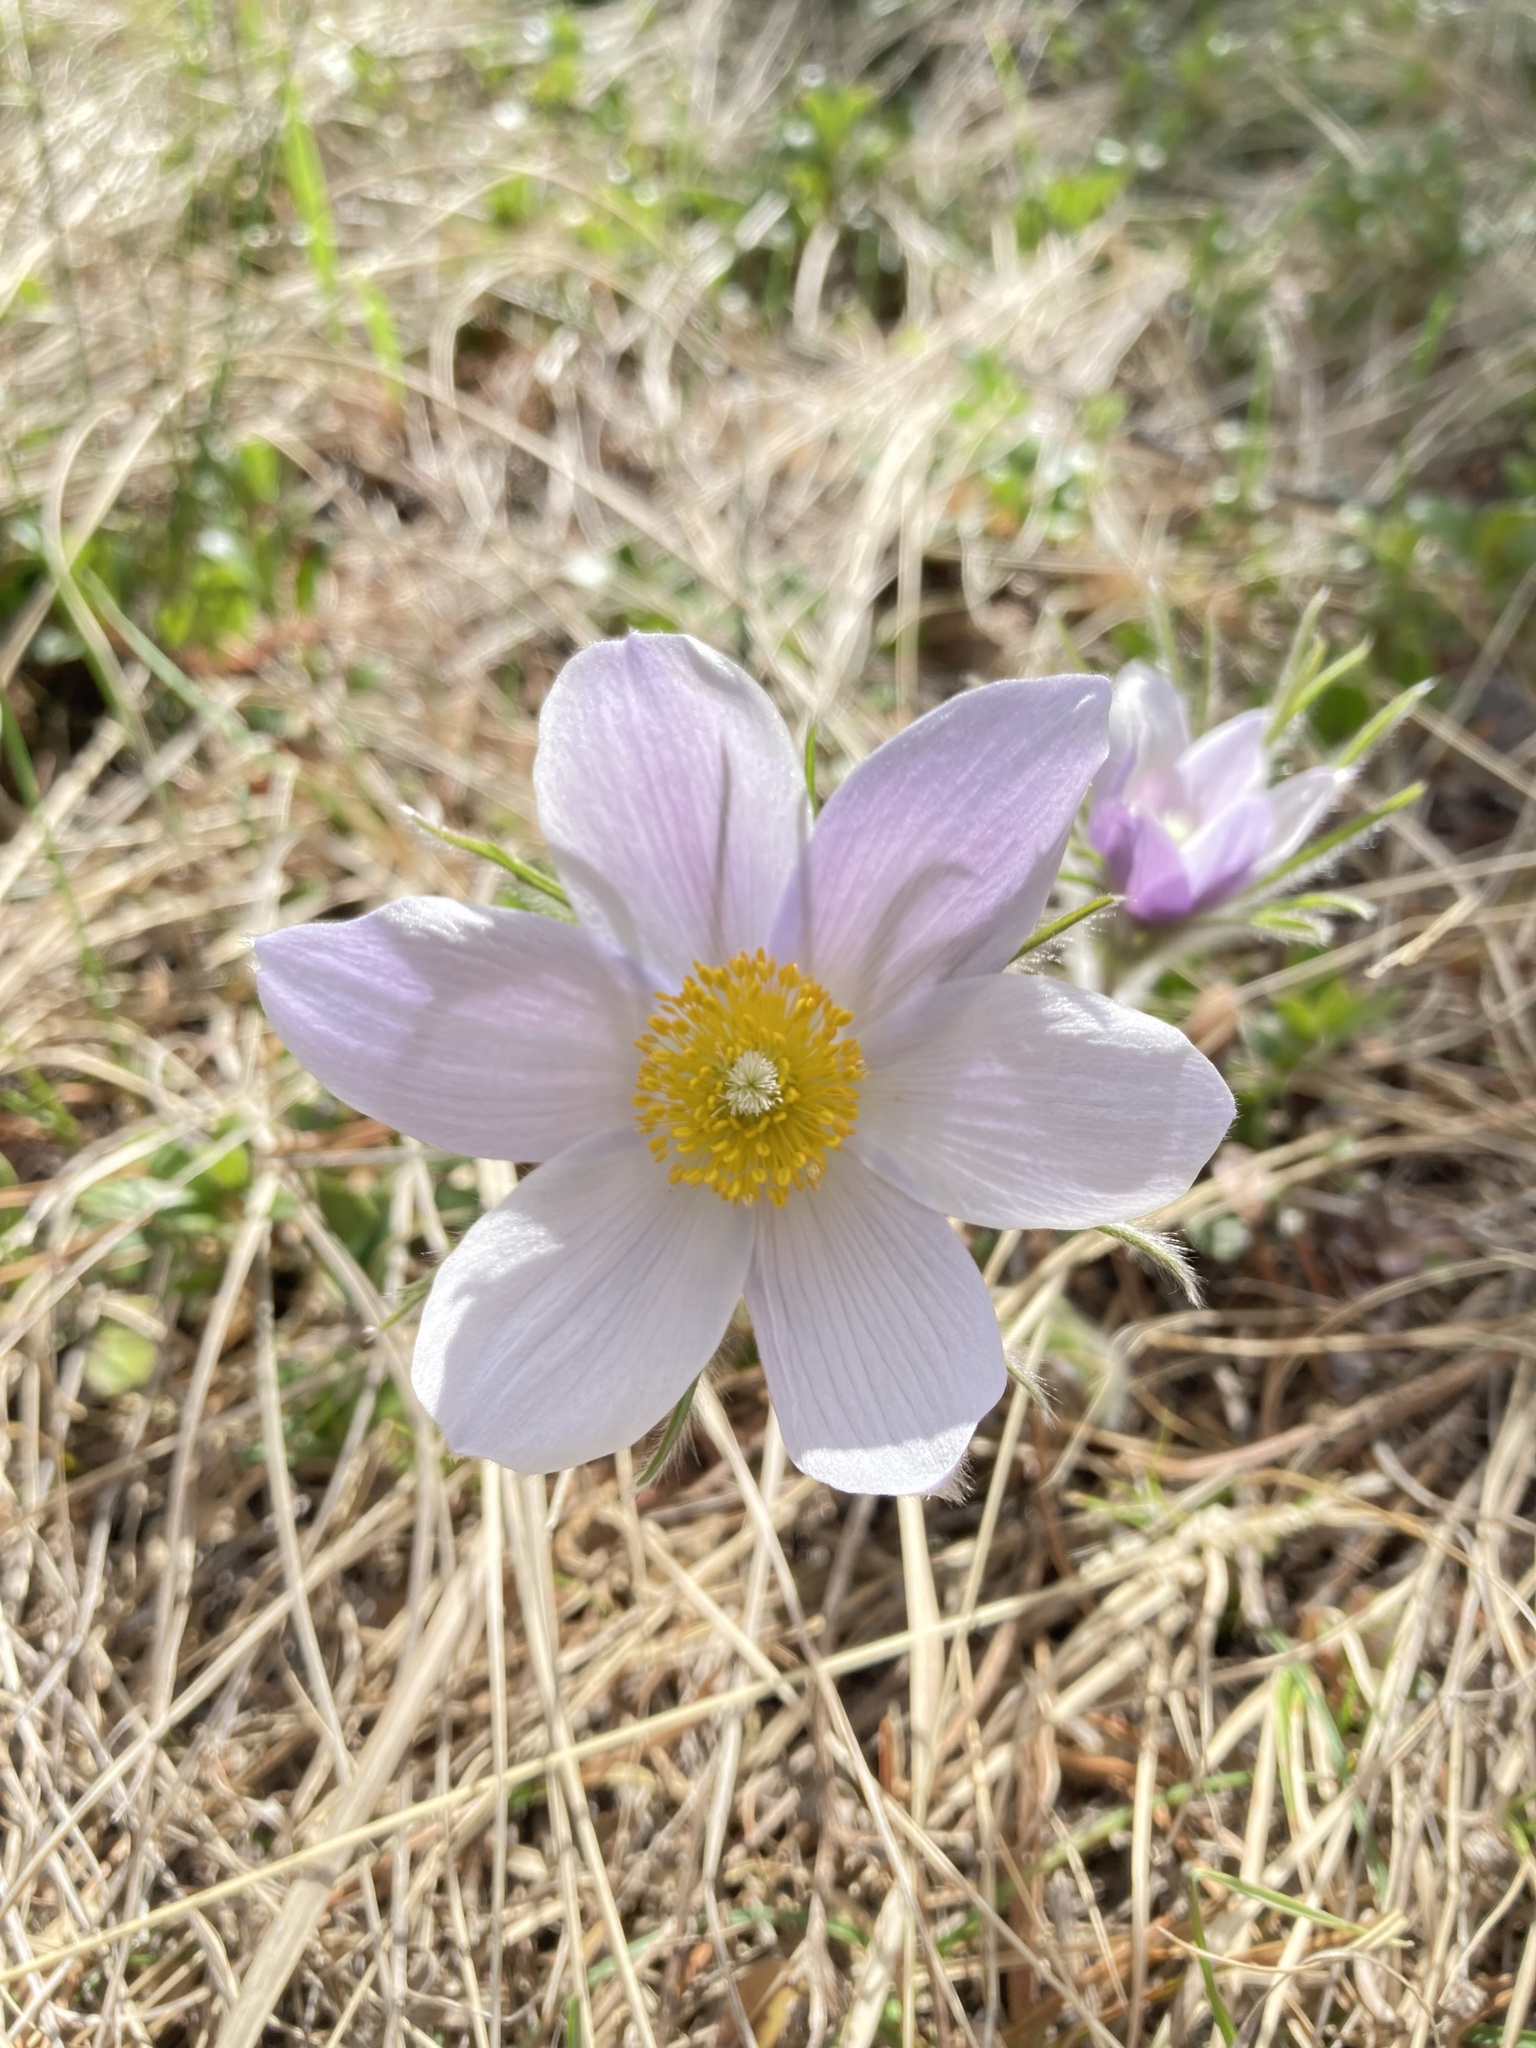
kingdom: Plantae
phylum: Tracheophyta
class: Magnoliopsida
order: Ranunculales
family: Ranunculaceae
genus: Pulsatilla
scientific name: Pulsatilla nuttalliana
